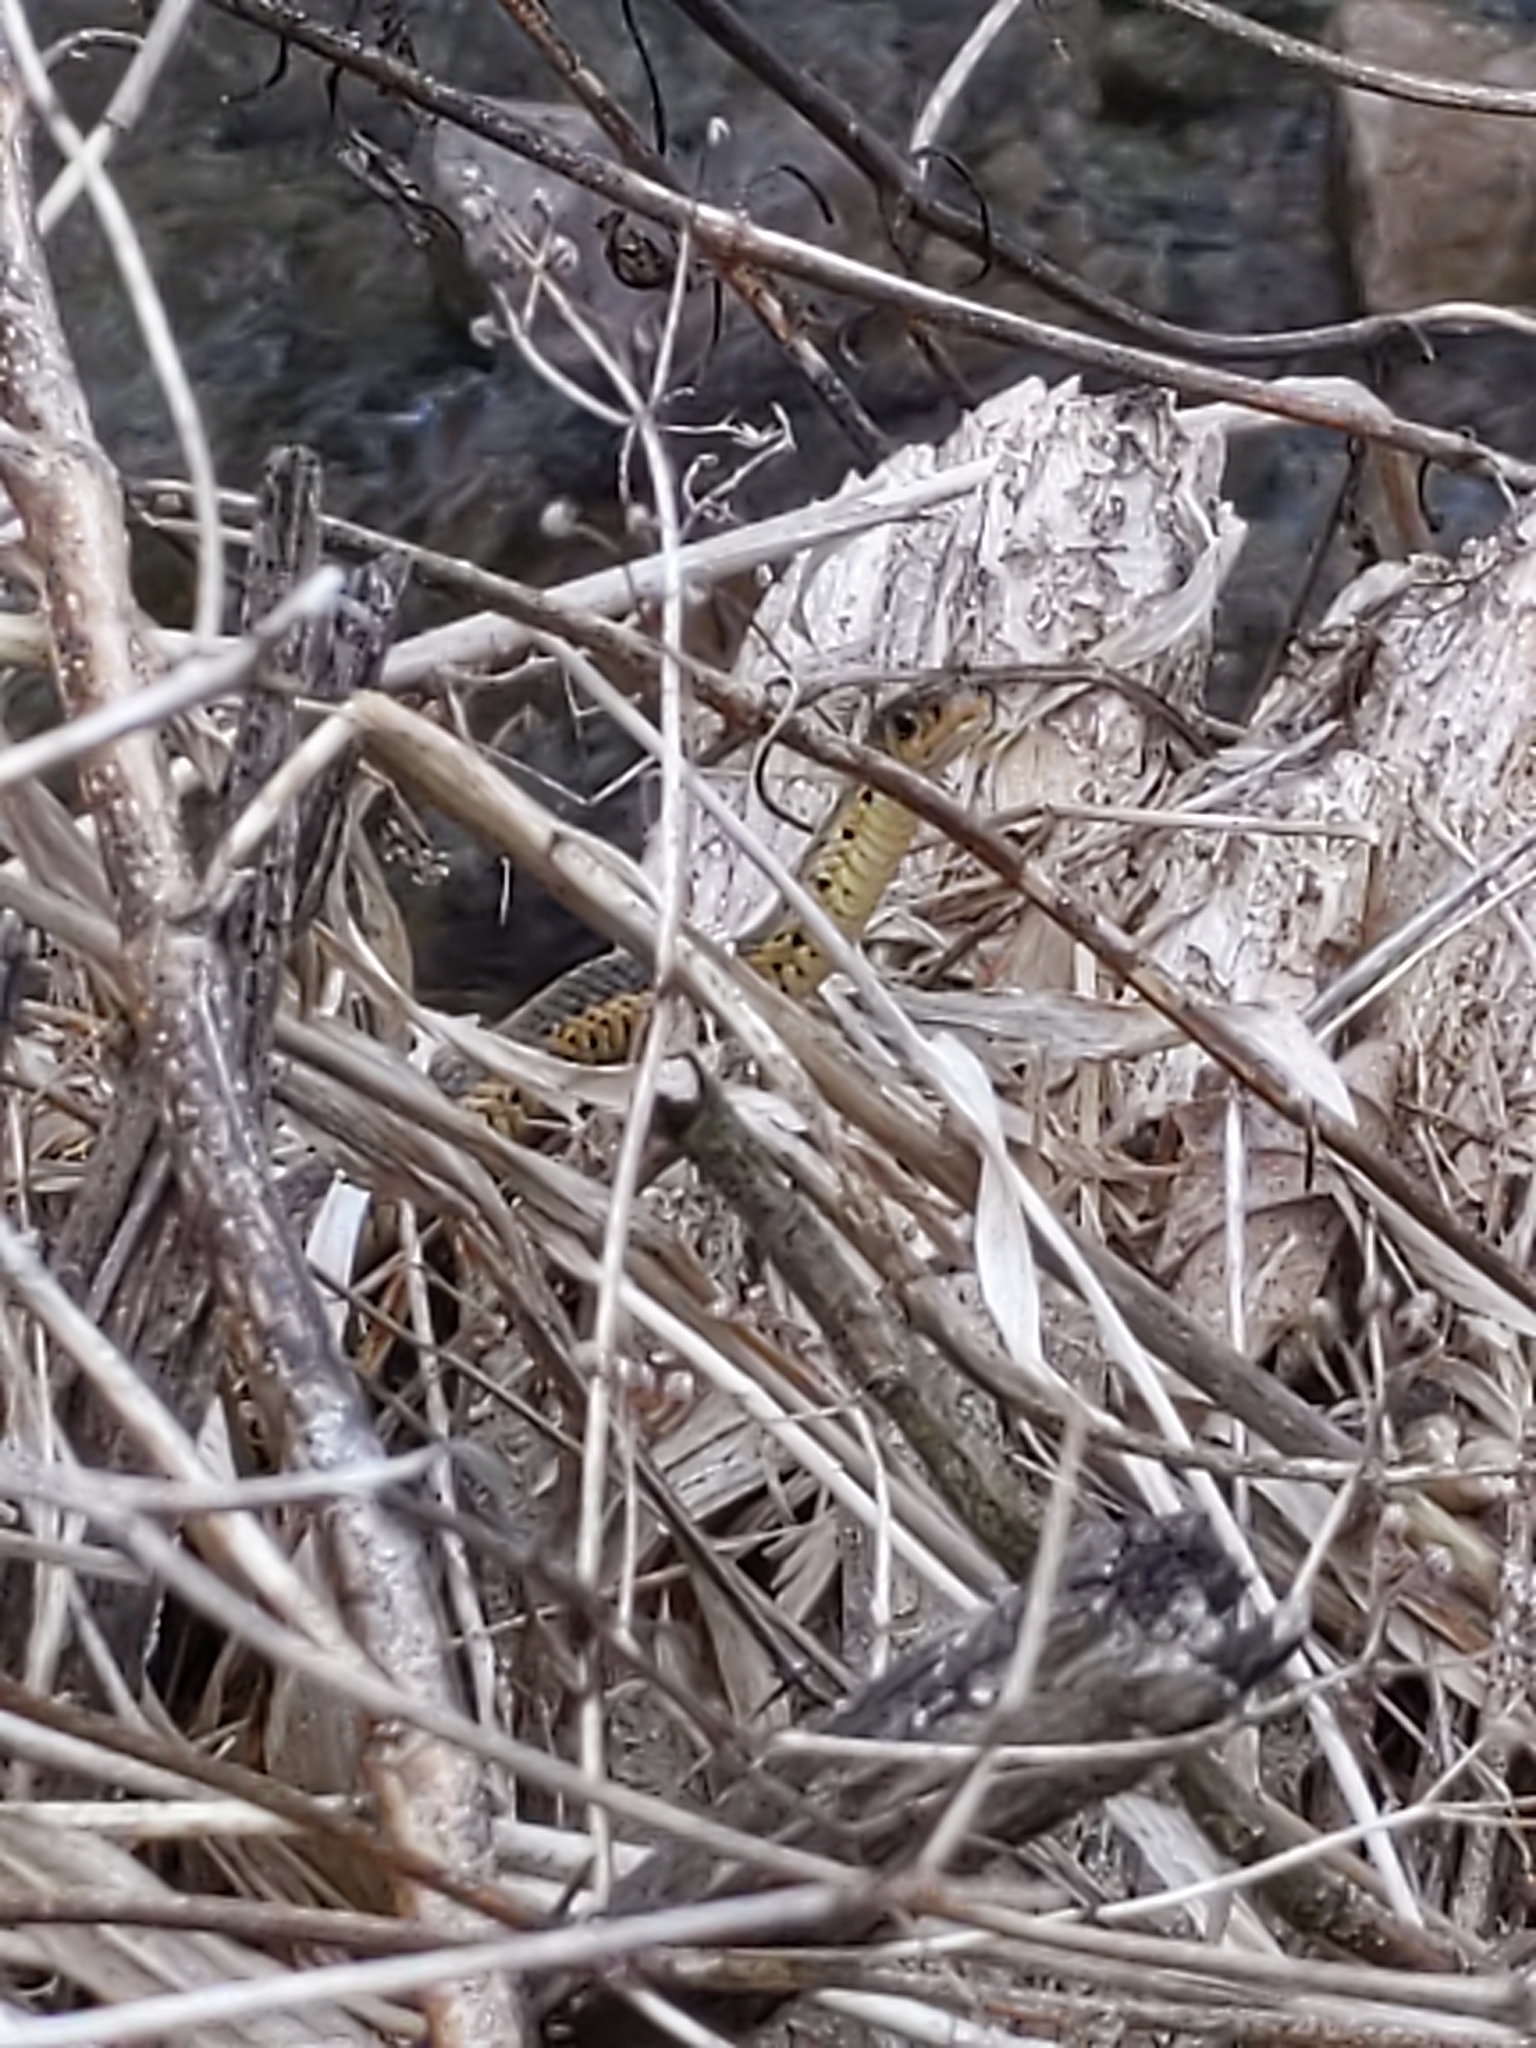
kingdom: Animalia
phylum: Chordata
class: Squamata
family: Colubridae
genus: Thamnophis
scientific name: Thamnophis sirtalis
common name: Common garter snake
